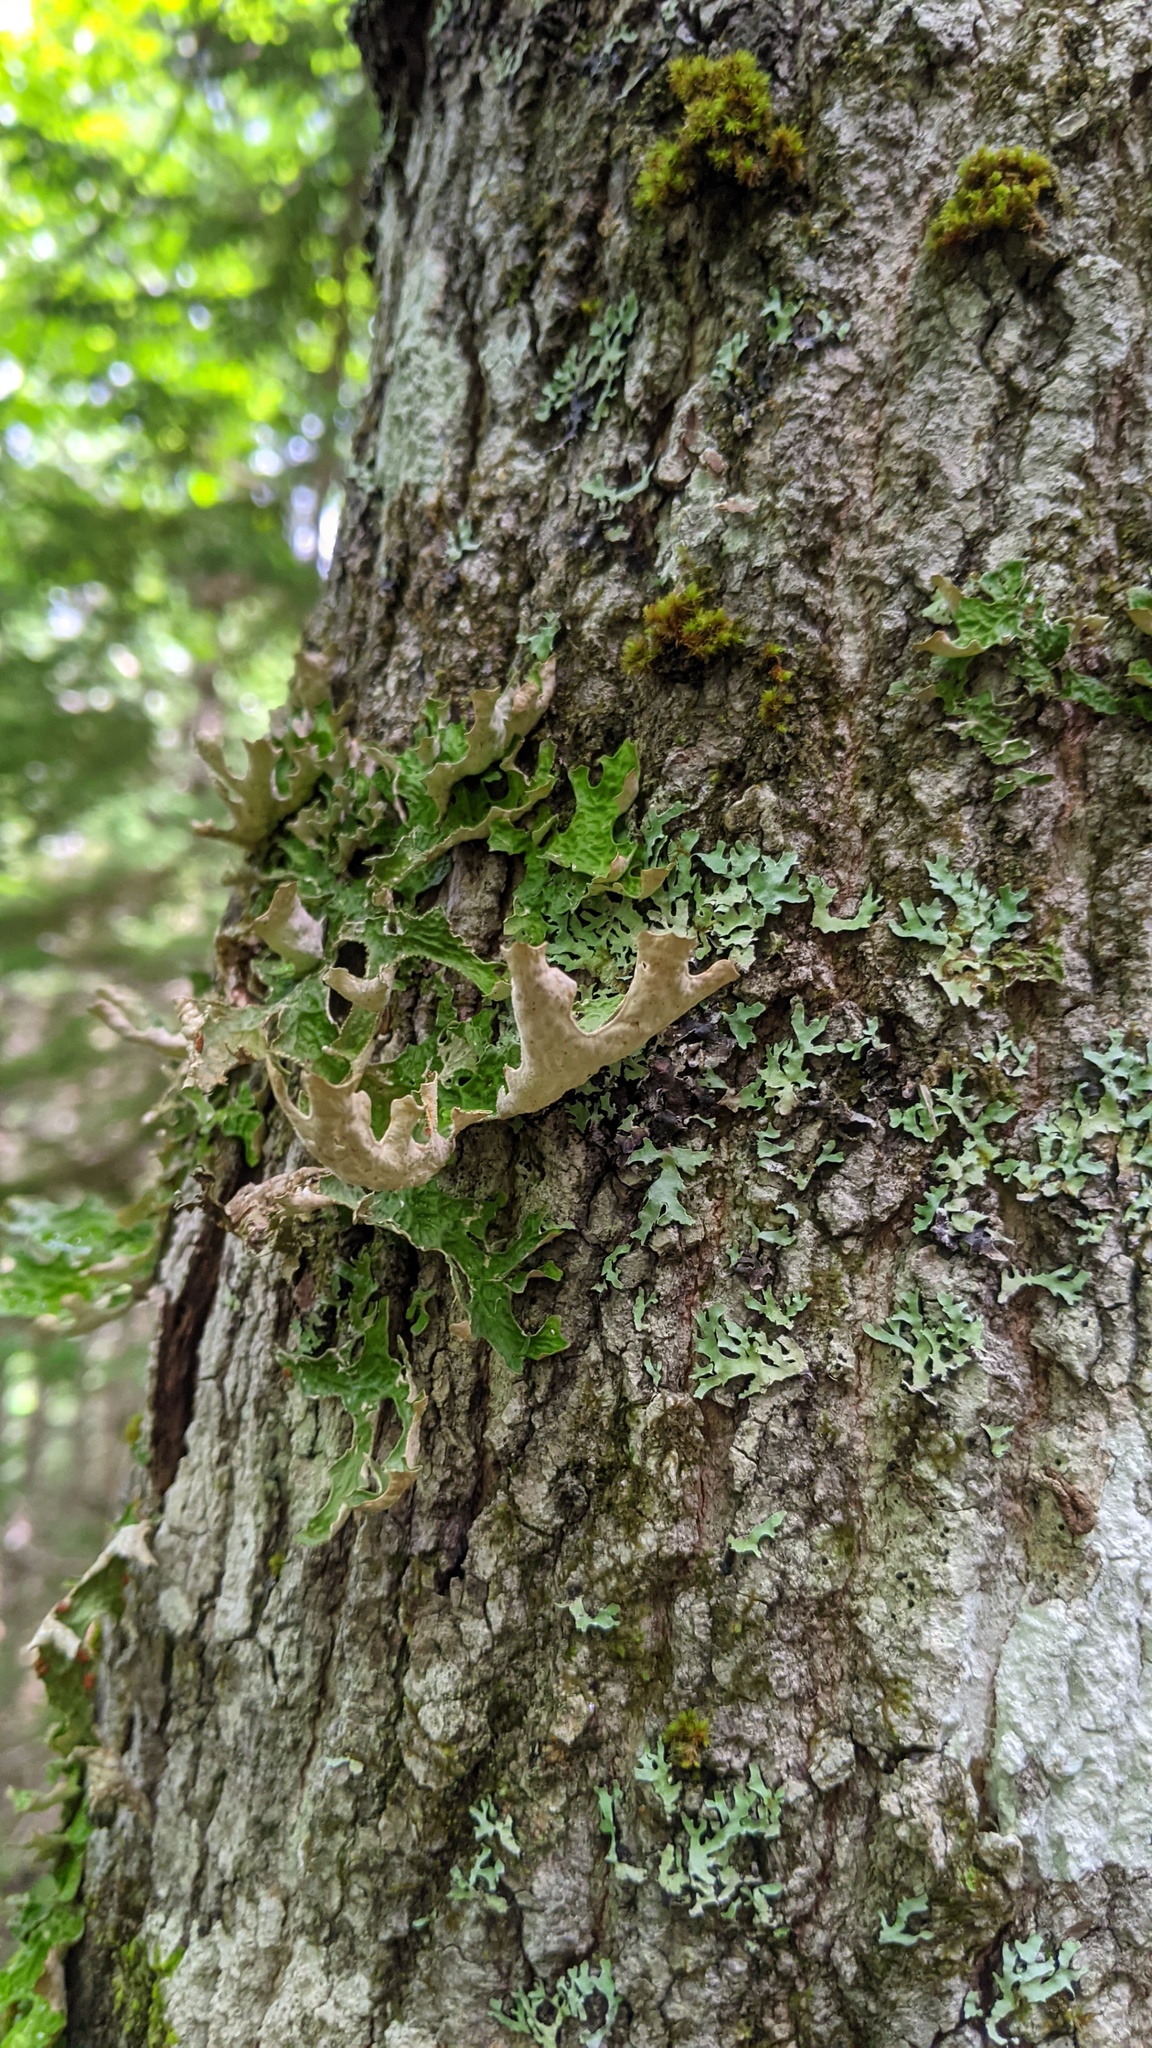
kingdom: Fungi
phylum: Ascomycota
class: Lecanoromycetes
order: Peltigerales
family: Lobariaceae
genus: Lobaria
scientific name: Lobaria pulmonaria
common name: Lungwort
